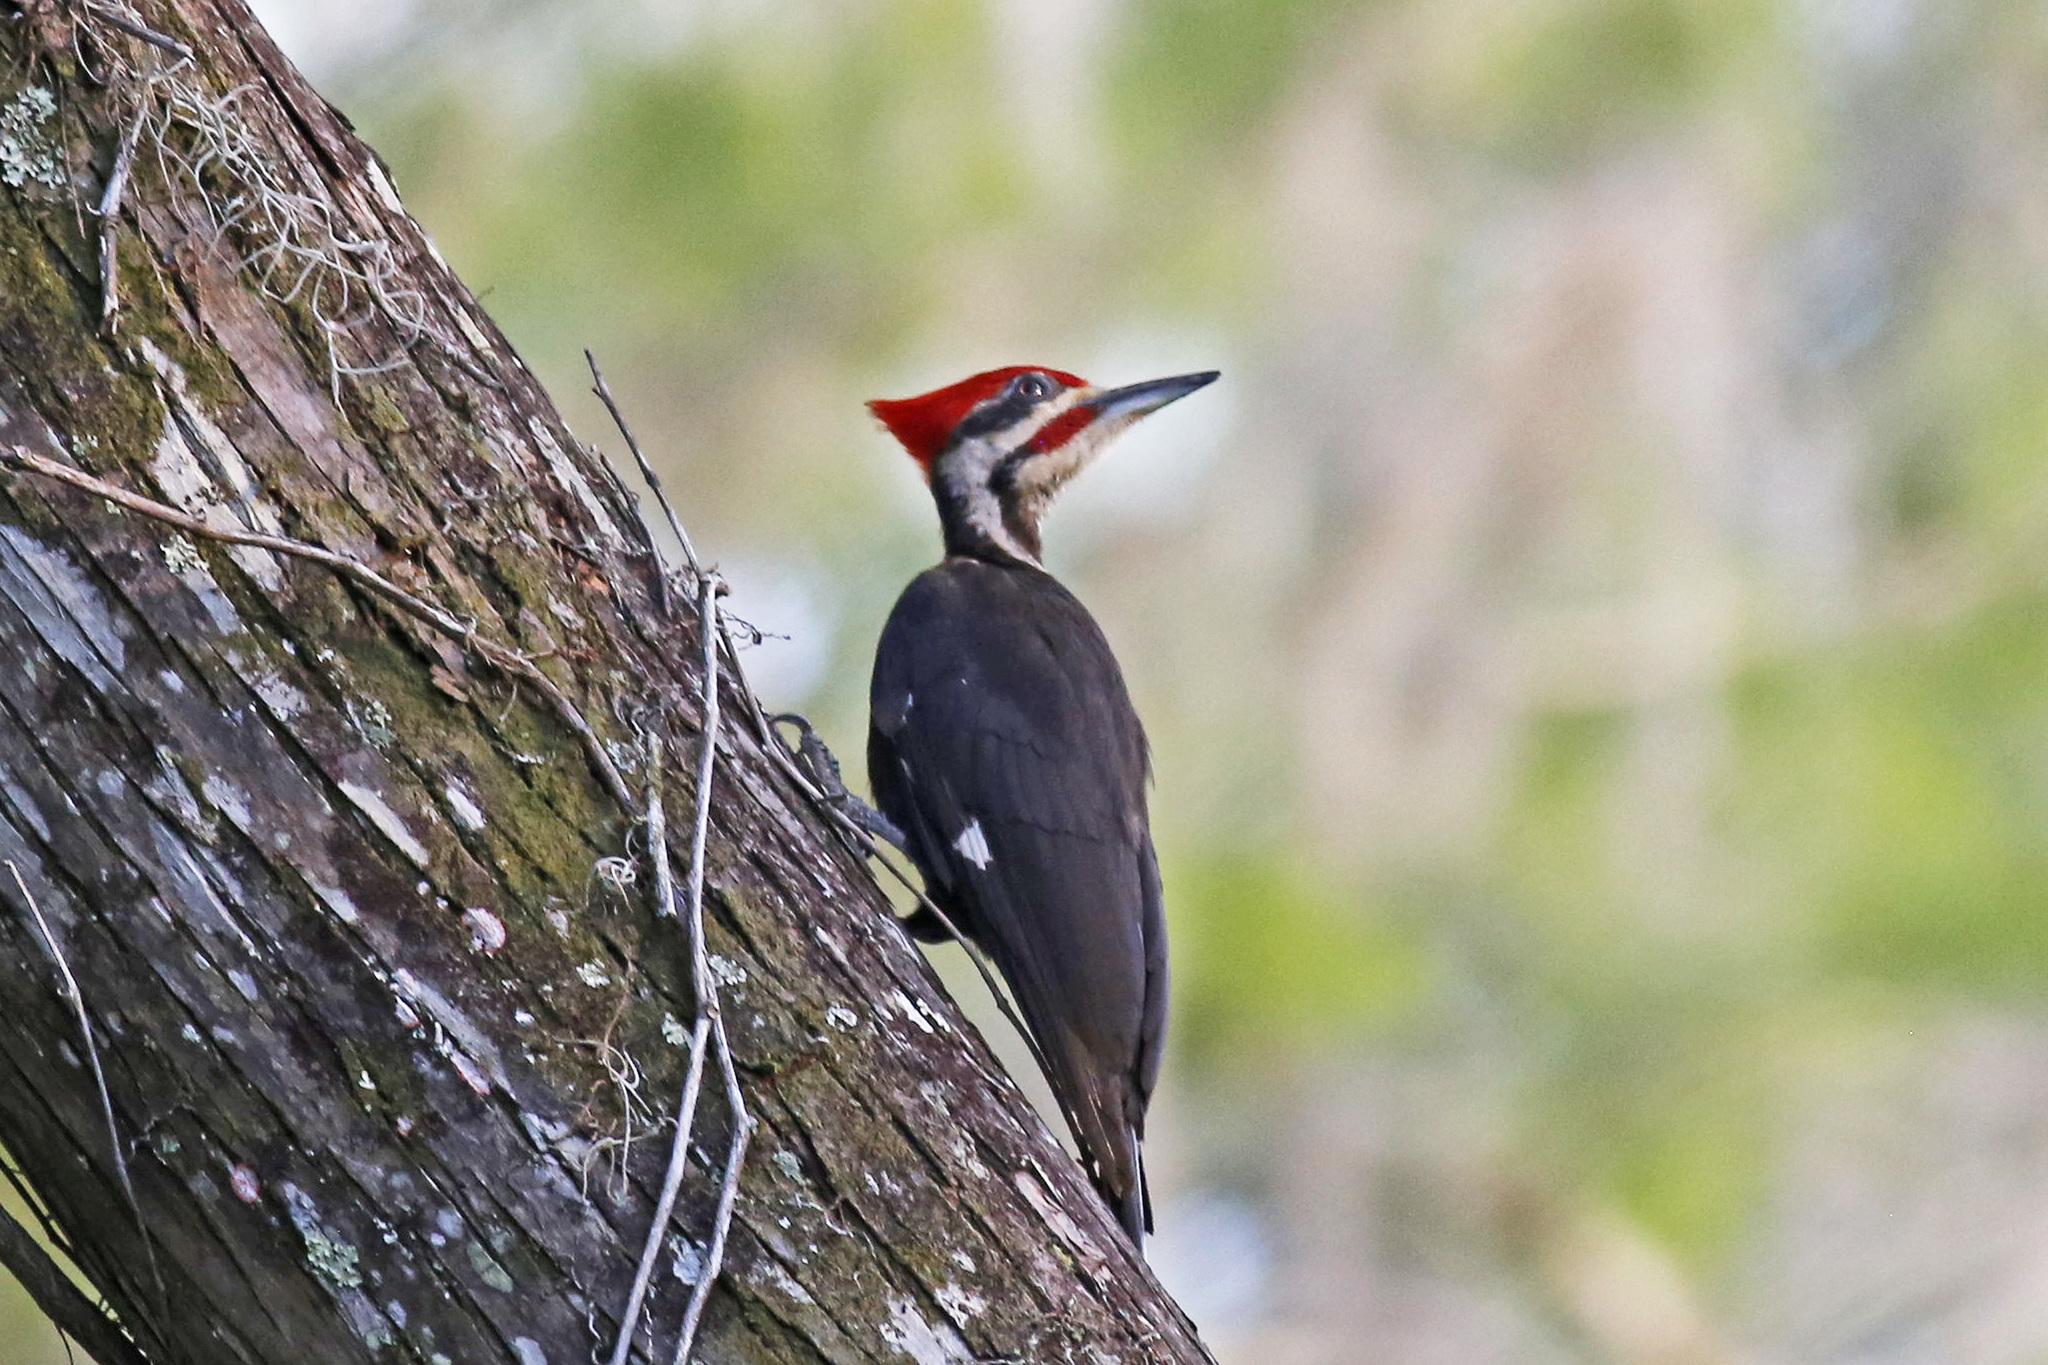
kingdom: Animalia
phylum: Chordata
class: Aves
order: Piciformes
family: Picidae
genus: Dryocopus
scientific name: Dryocopus pileatus
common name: Pileated woodpecker
